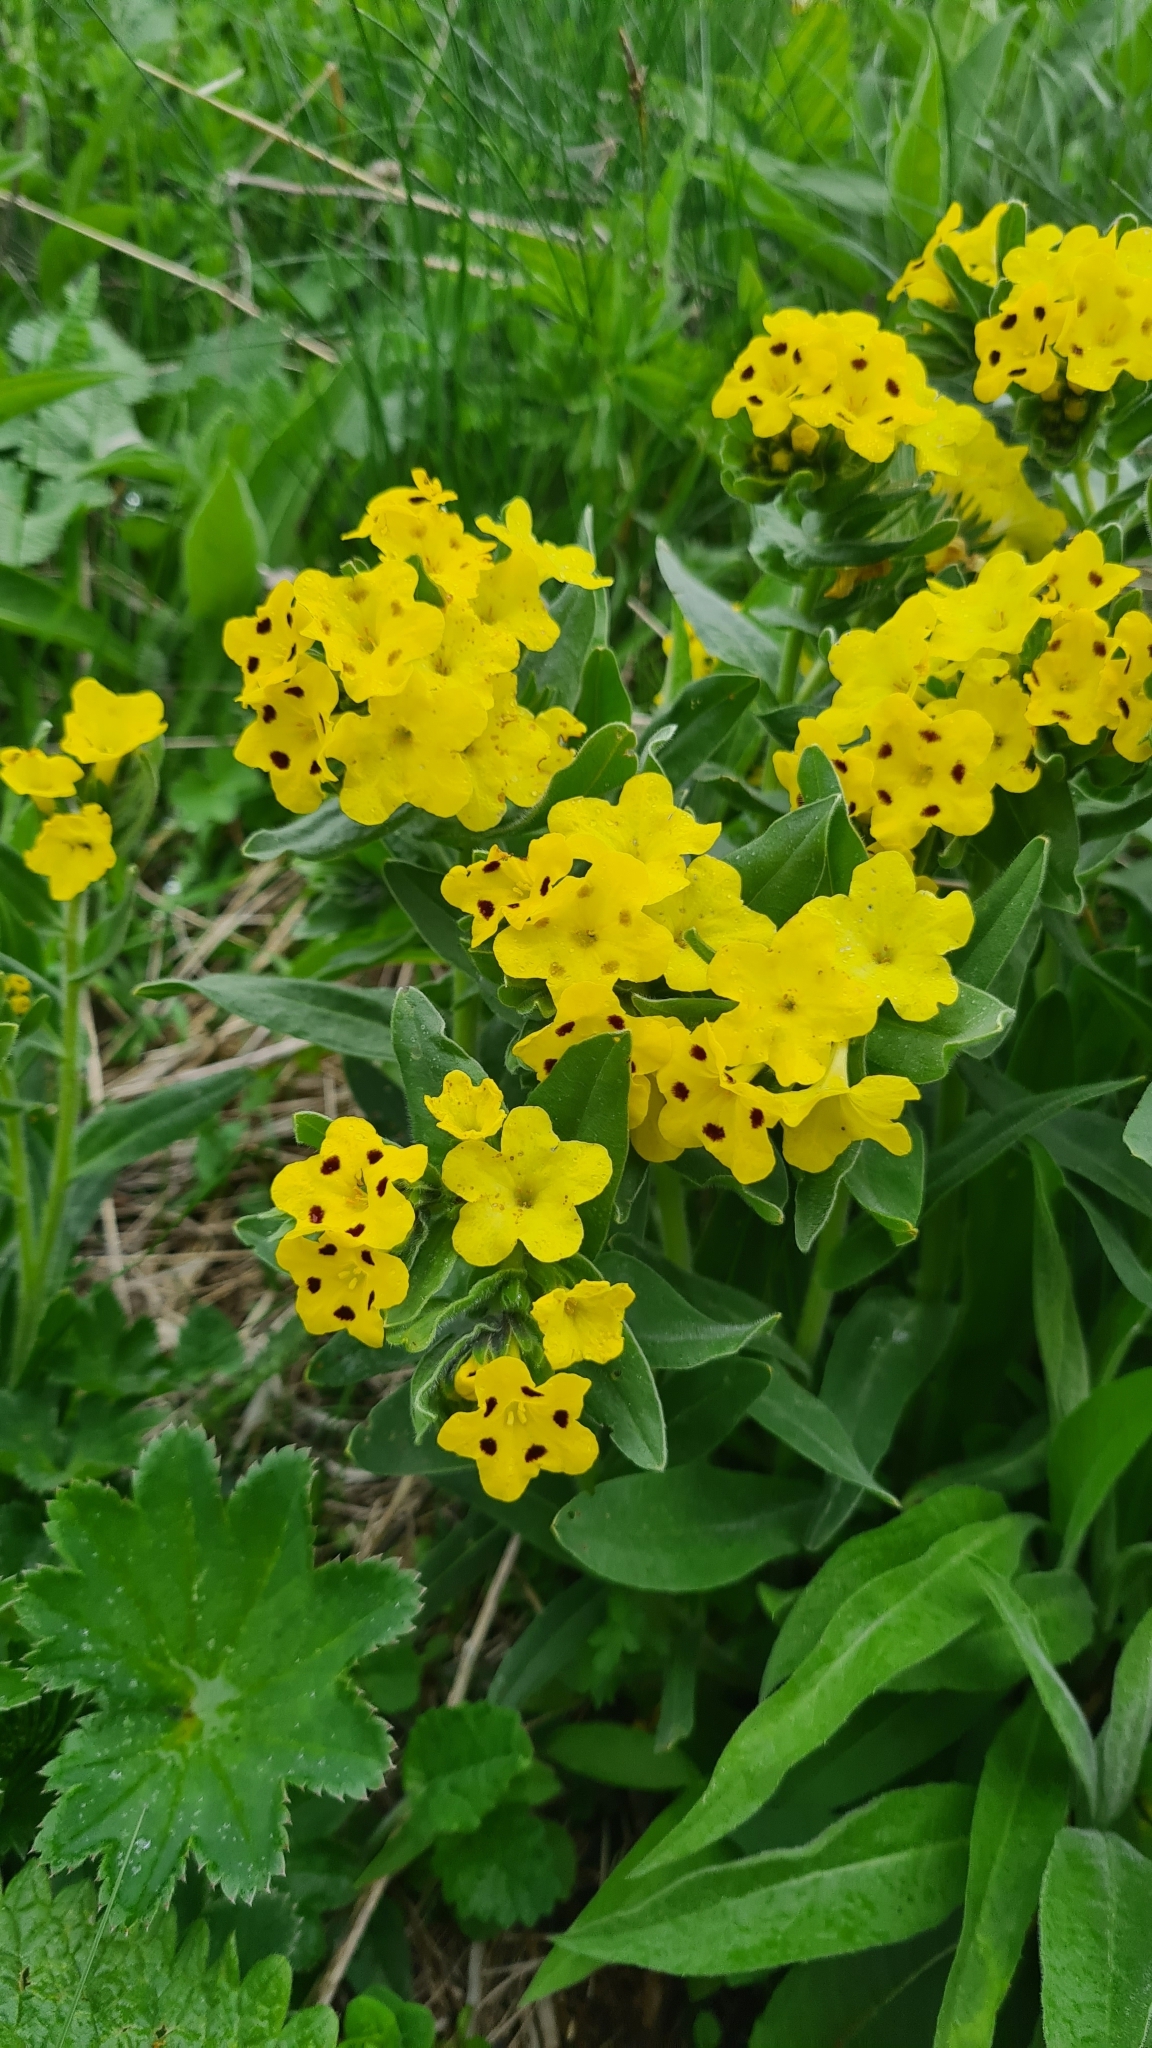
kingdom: Plantae
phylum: Tracheophyta
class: Magnoliopsida
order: Boraginales
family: Boraginaceae
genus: Huynhia
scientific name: Huynhia pulchra
